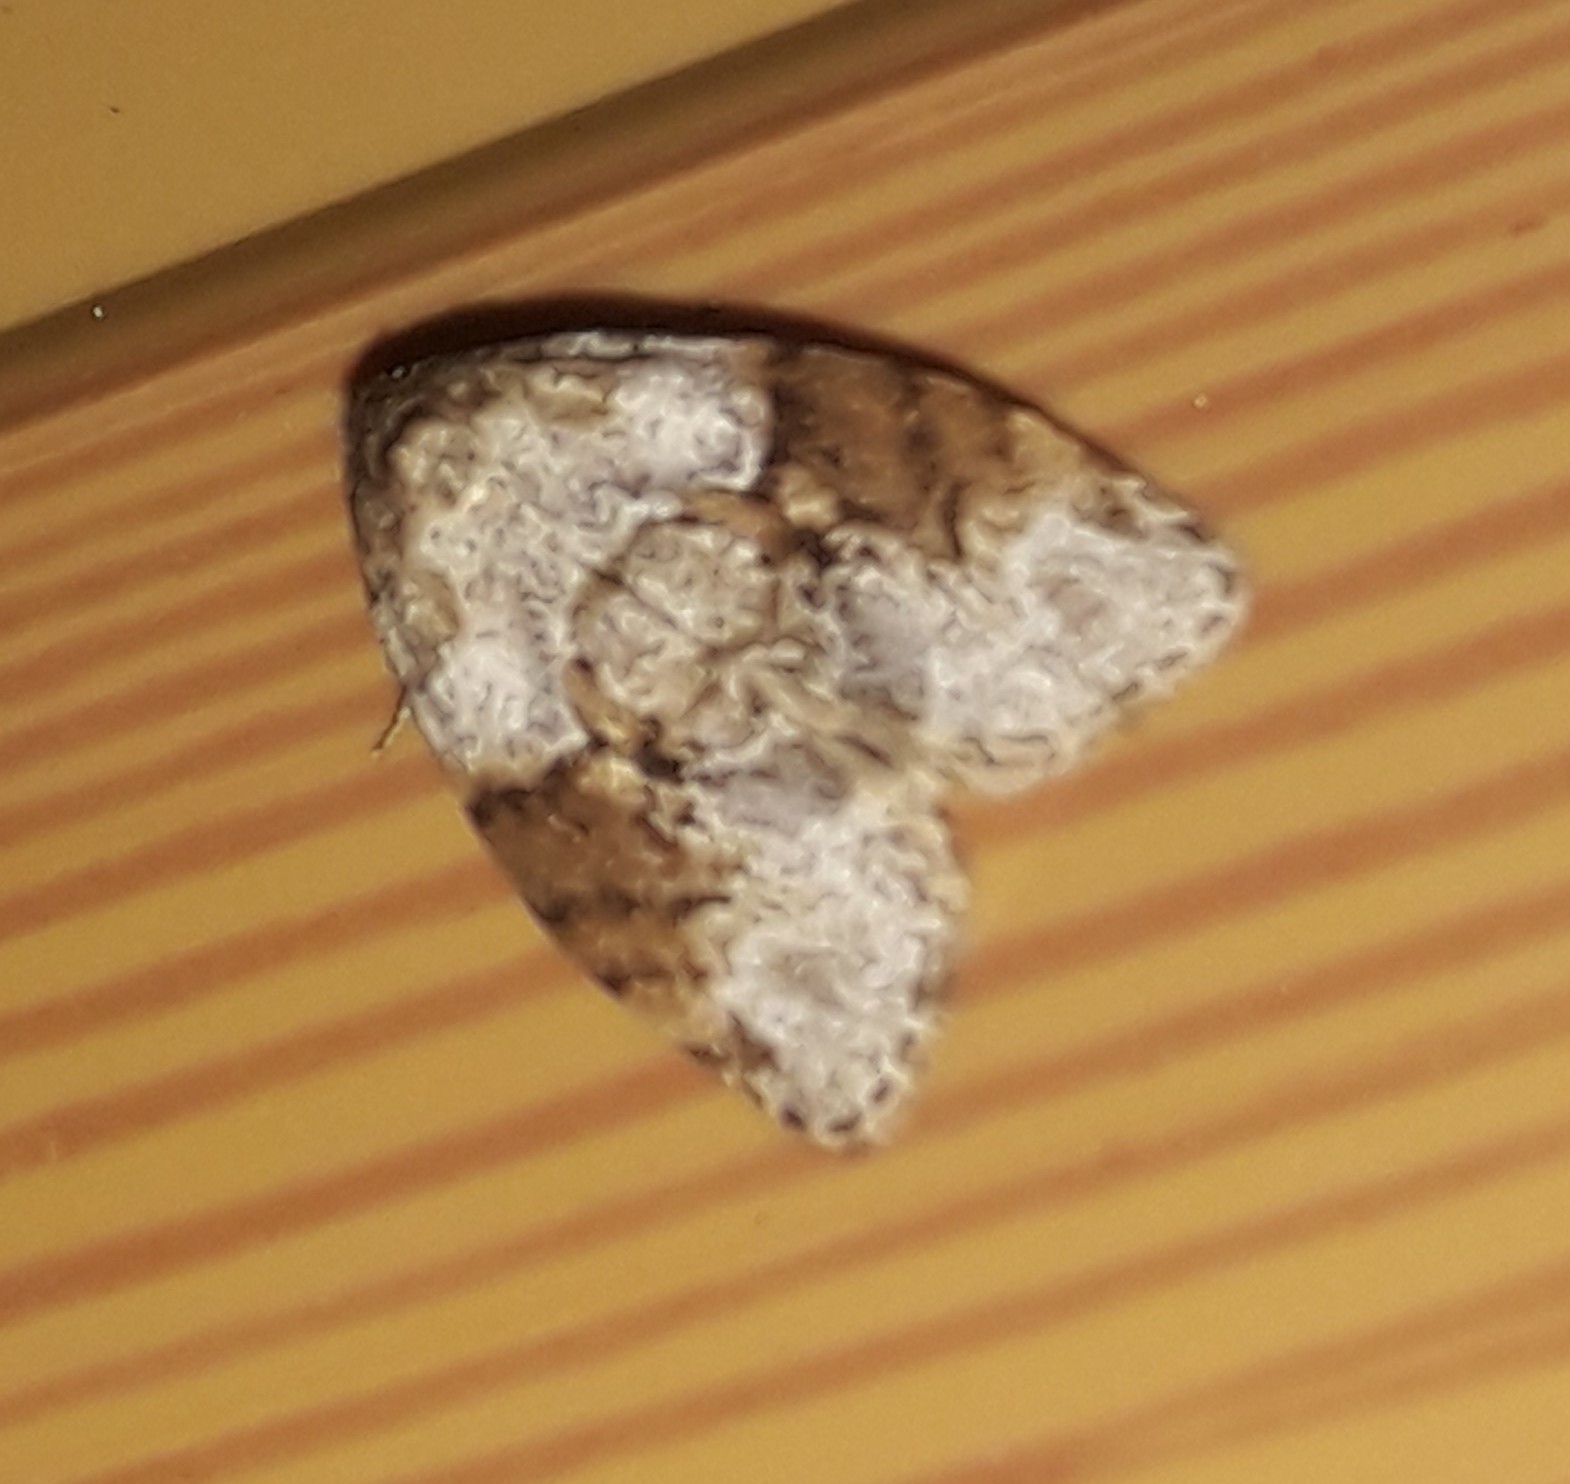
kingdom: Animalia
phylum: Arthropoda
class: Insecta
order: Lepidoptera
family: Erebidae
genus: Clemensia
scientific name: Clemensia brunneomedia
